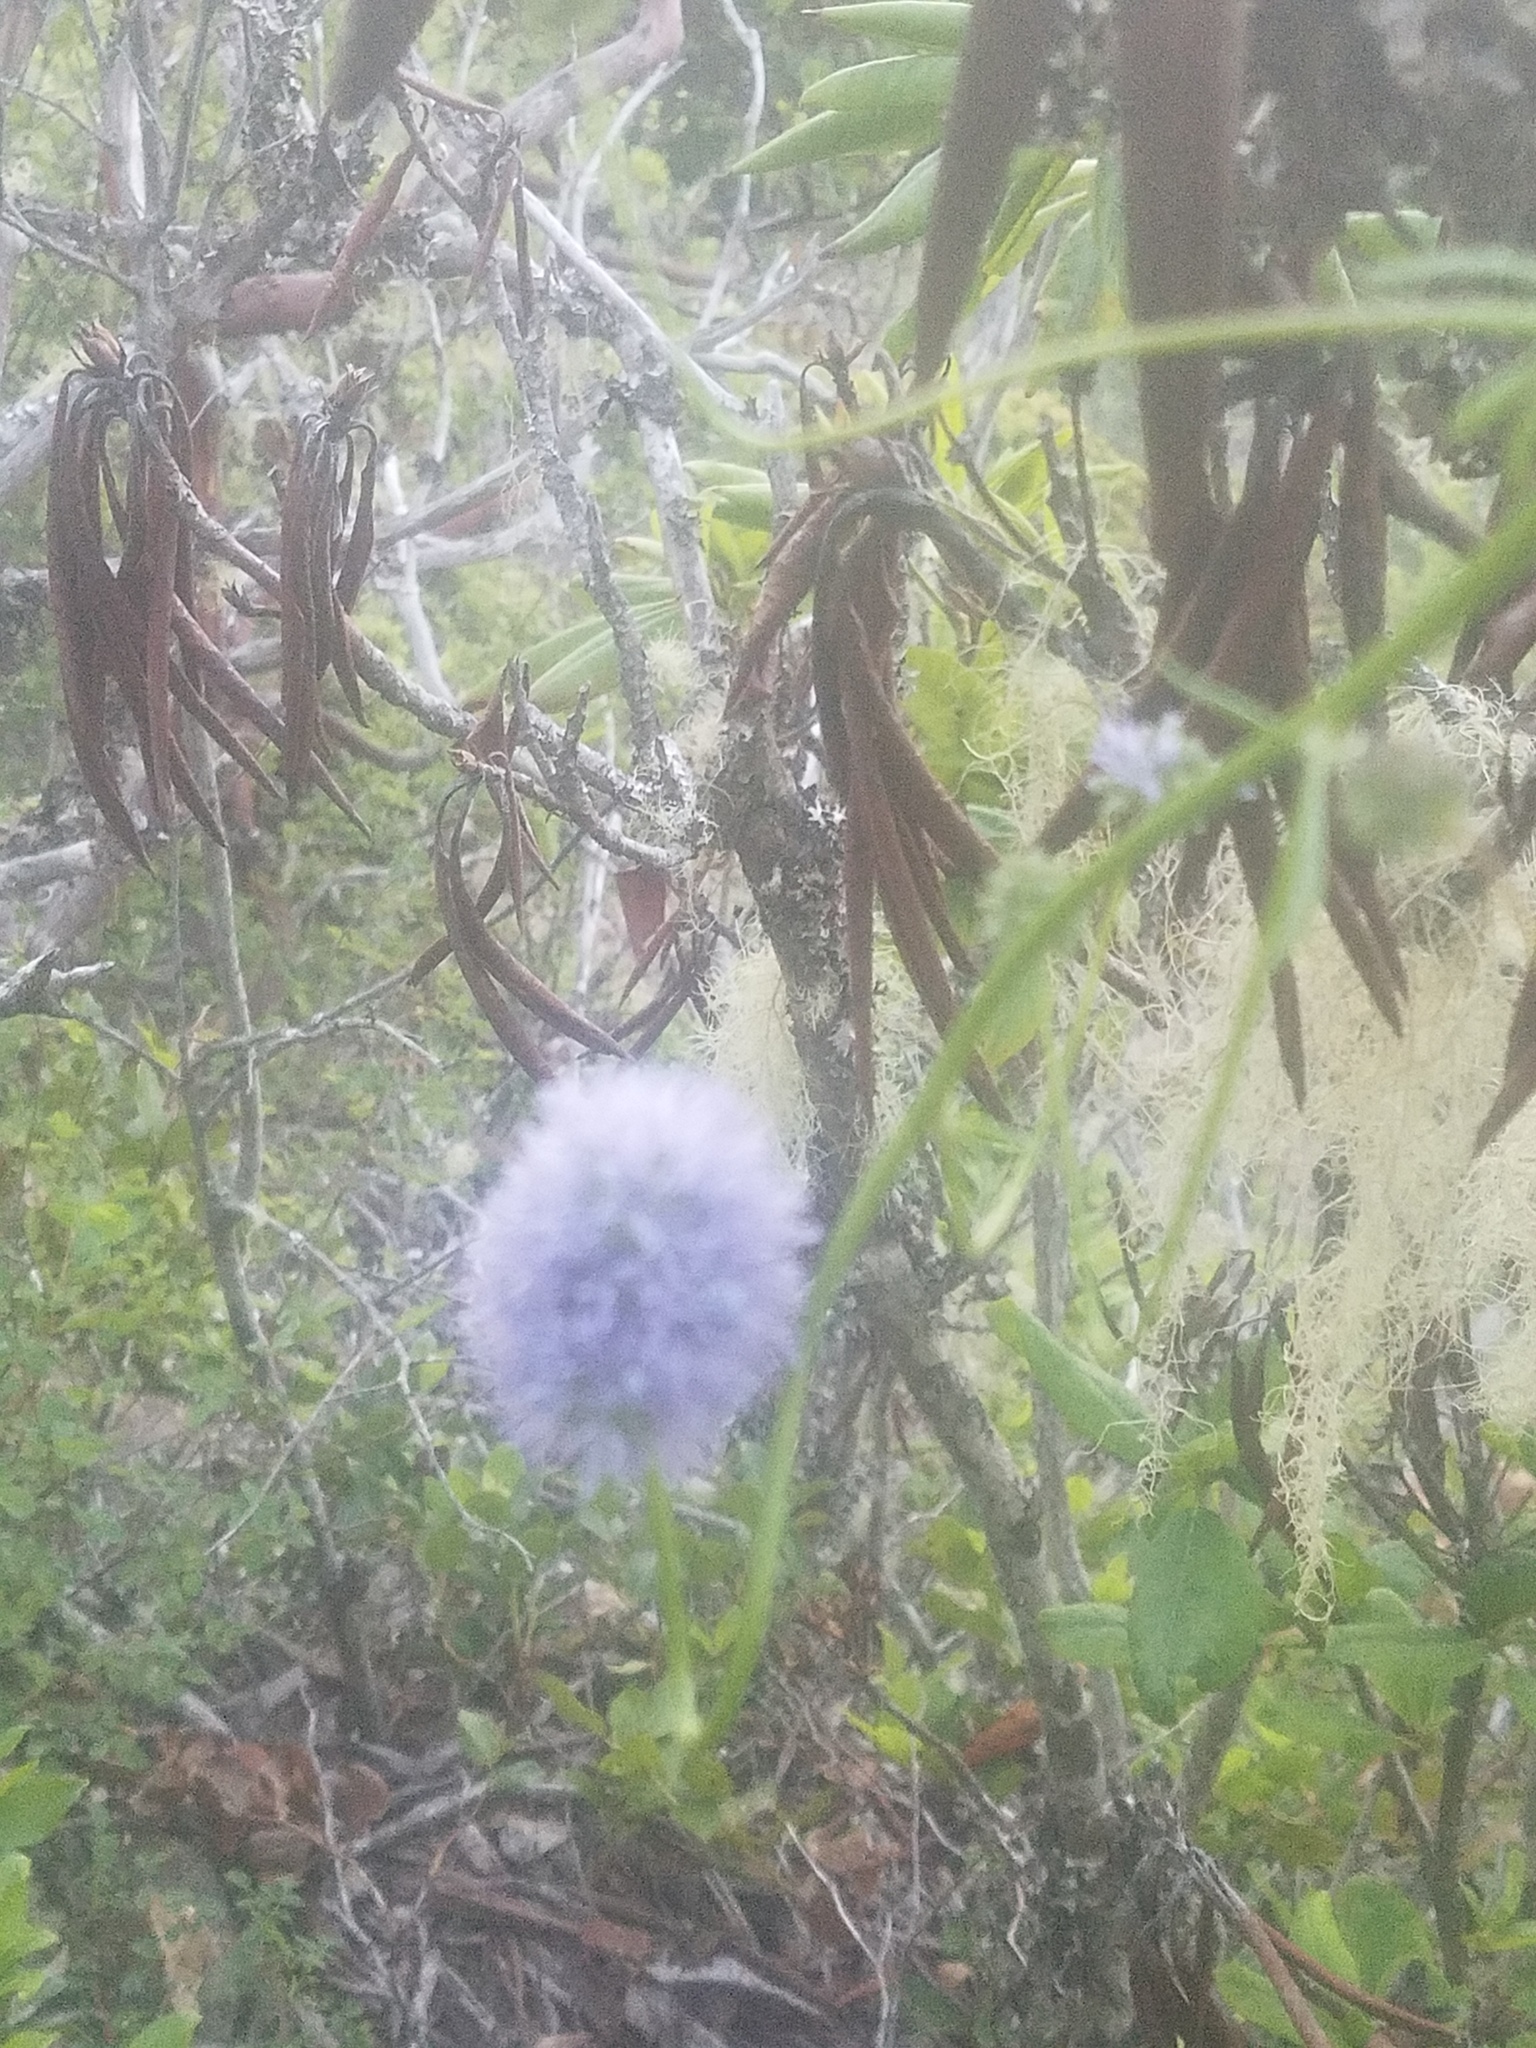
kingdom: Plantae
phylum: Tracheophyta
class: Magnoliopsida
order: Ericales
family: Polemoniaceae
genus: Gilia
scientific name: Gilia capitata
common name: Bluehead gilia
